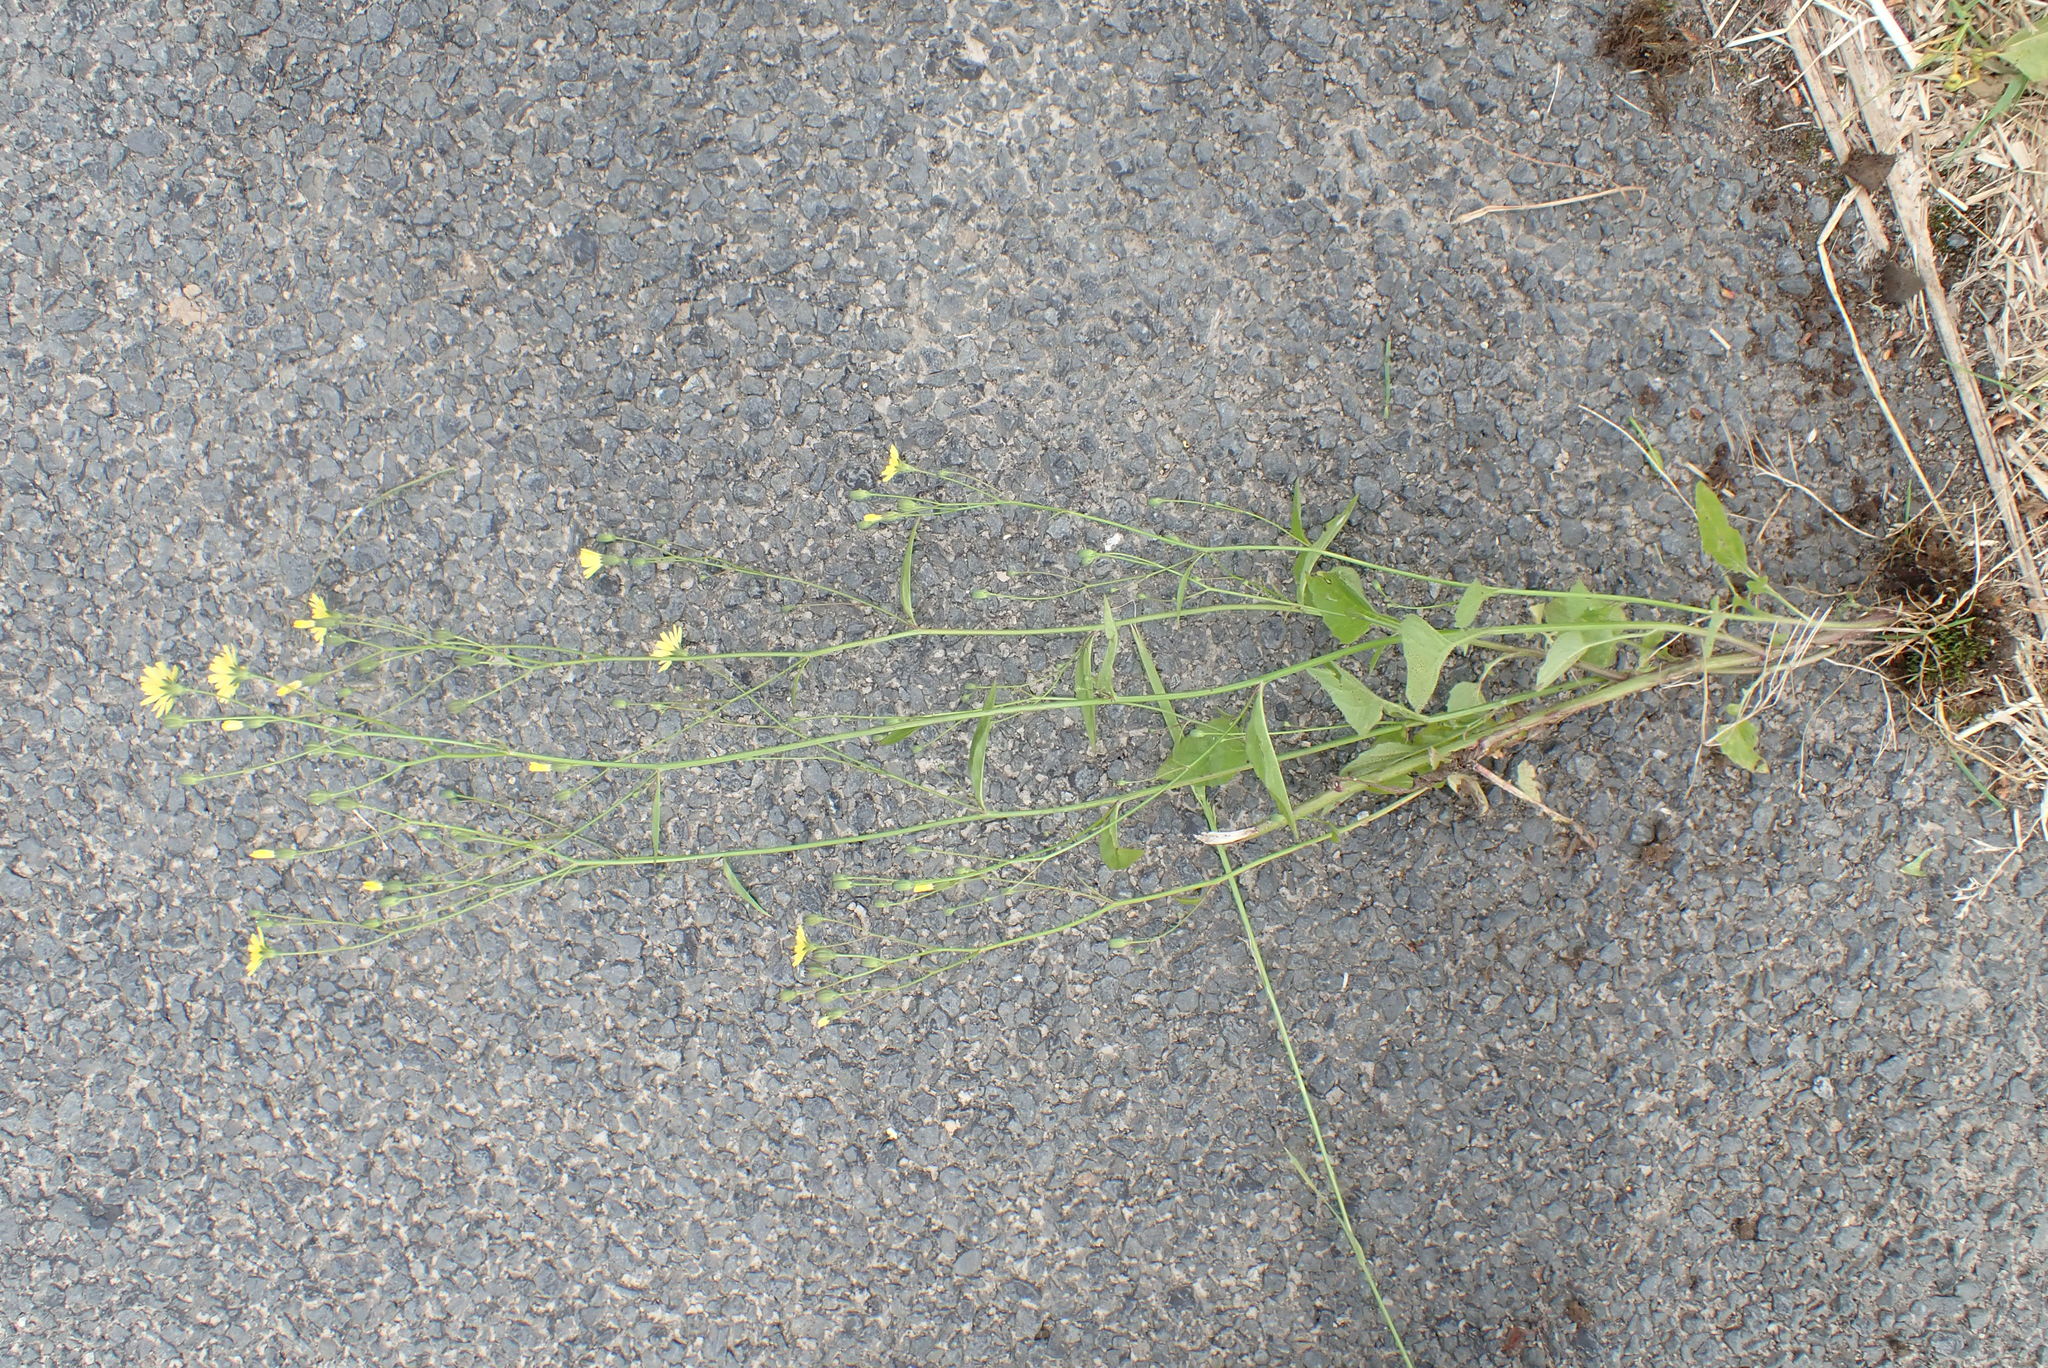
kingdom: Plantae
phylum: Tracheophyta
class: Magnoliopsida
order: Asterales
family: Asteraceae
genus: Lapsana
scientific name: Lapsana communis
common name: Nipplewort
